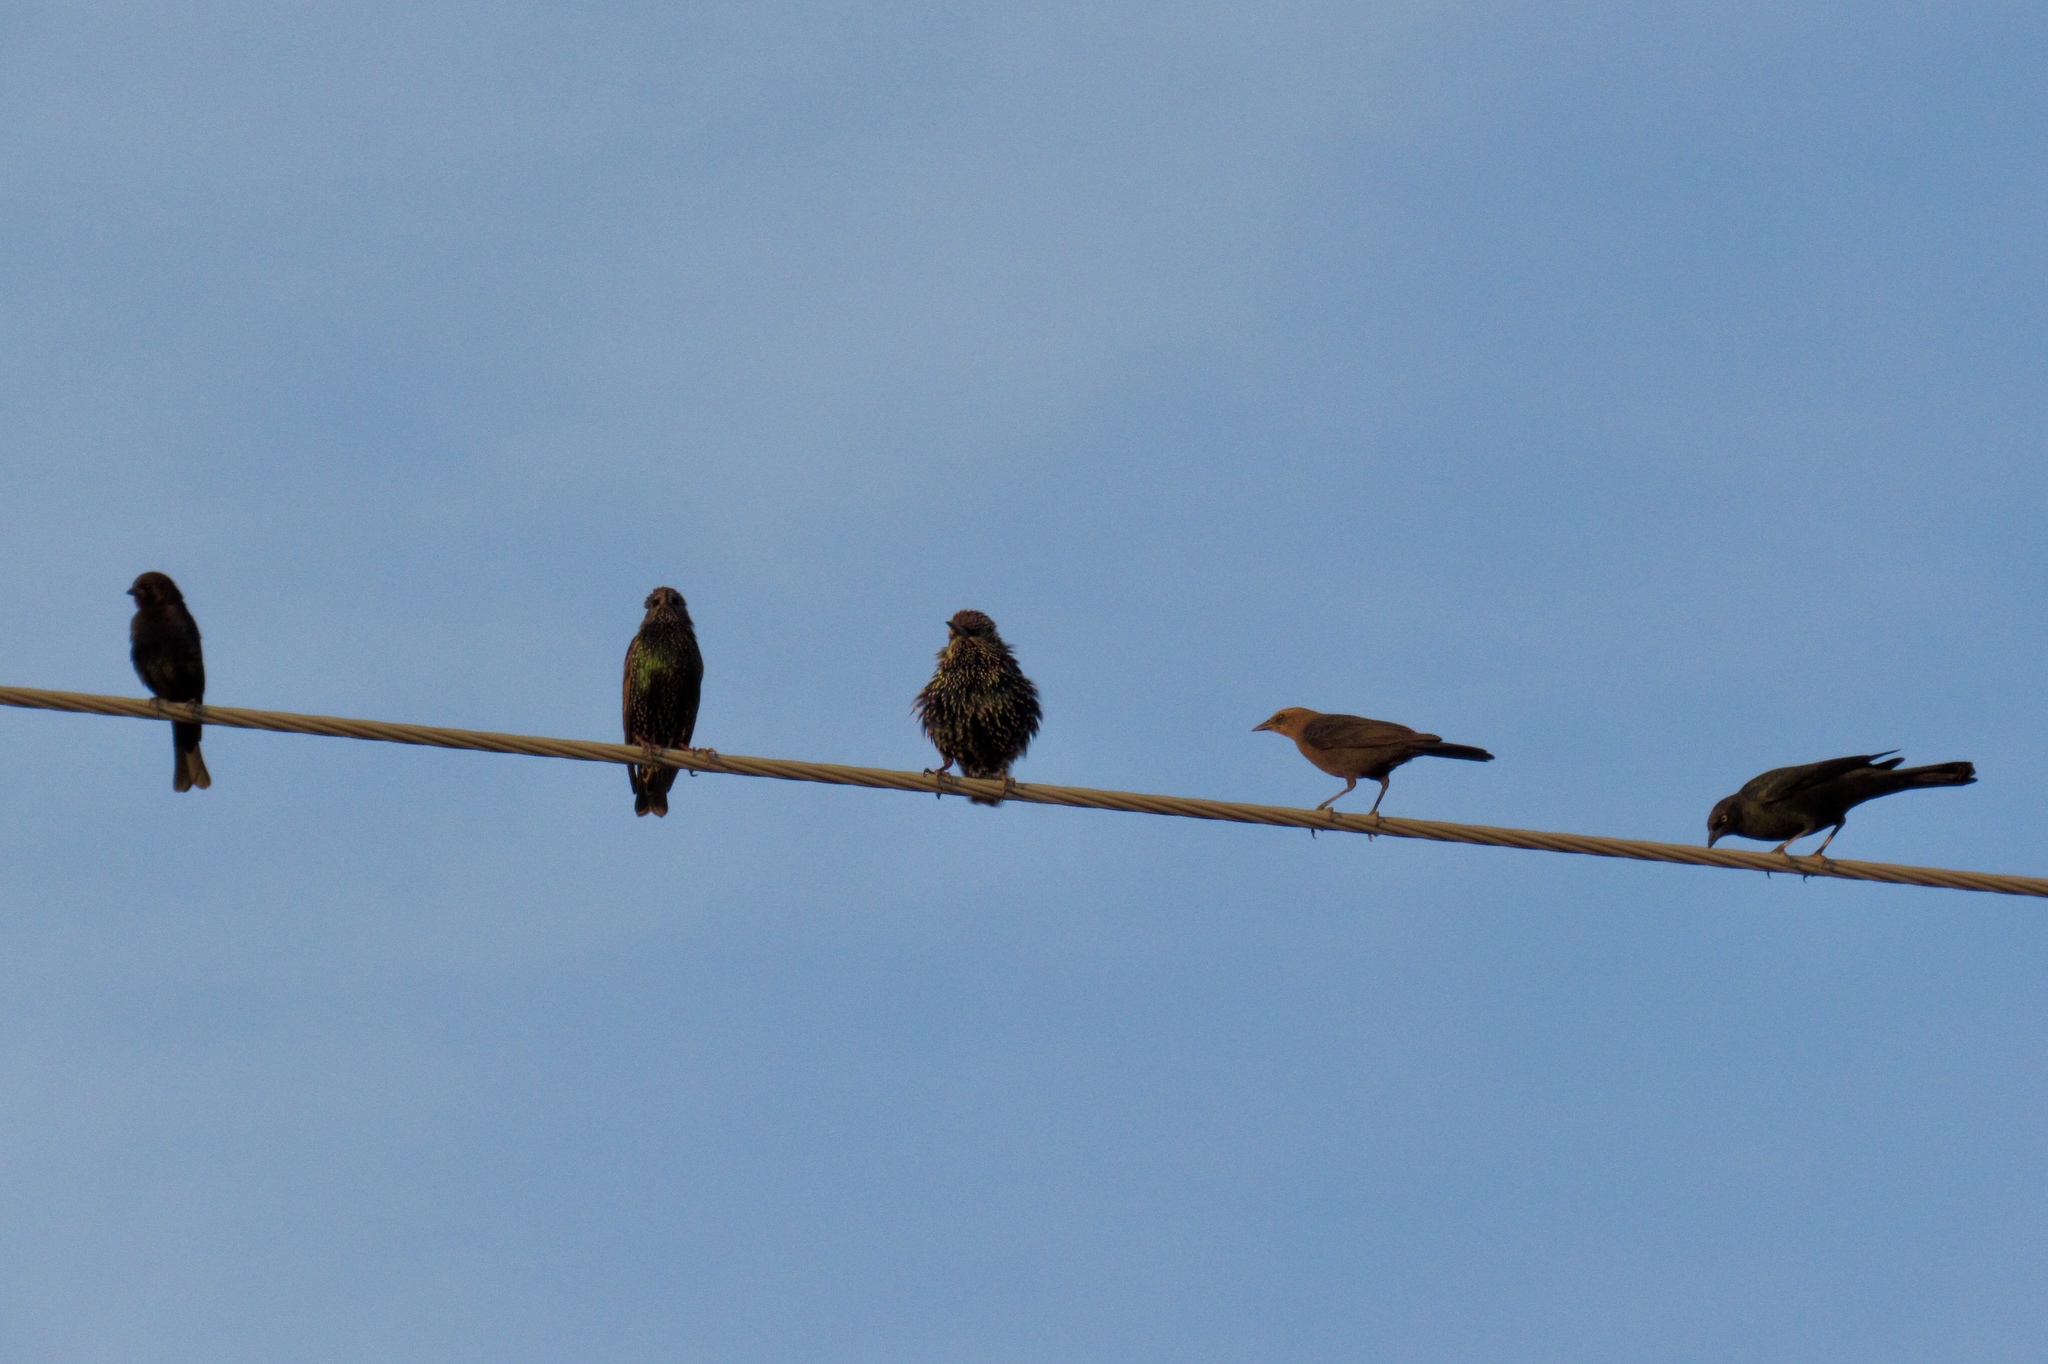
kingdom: Animalia
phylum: Chordata
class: Aves
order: Passeriformes
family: Sturnidae
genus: Sturnus
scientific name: Sturnus vulgaris
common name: Common starling
